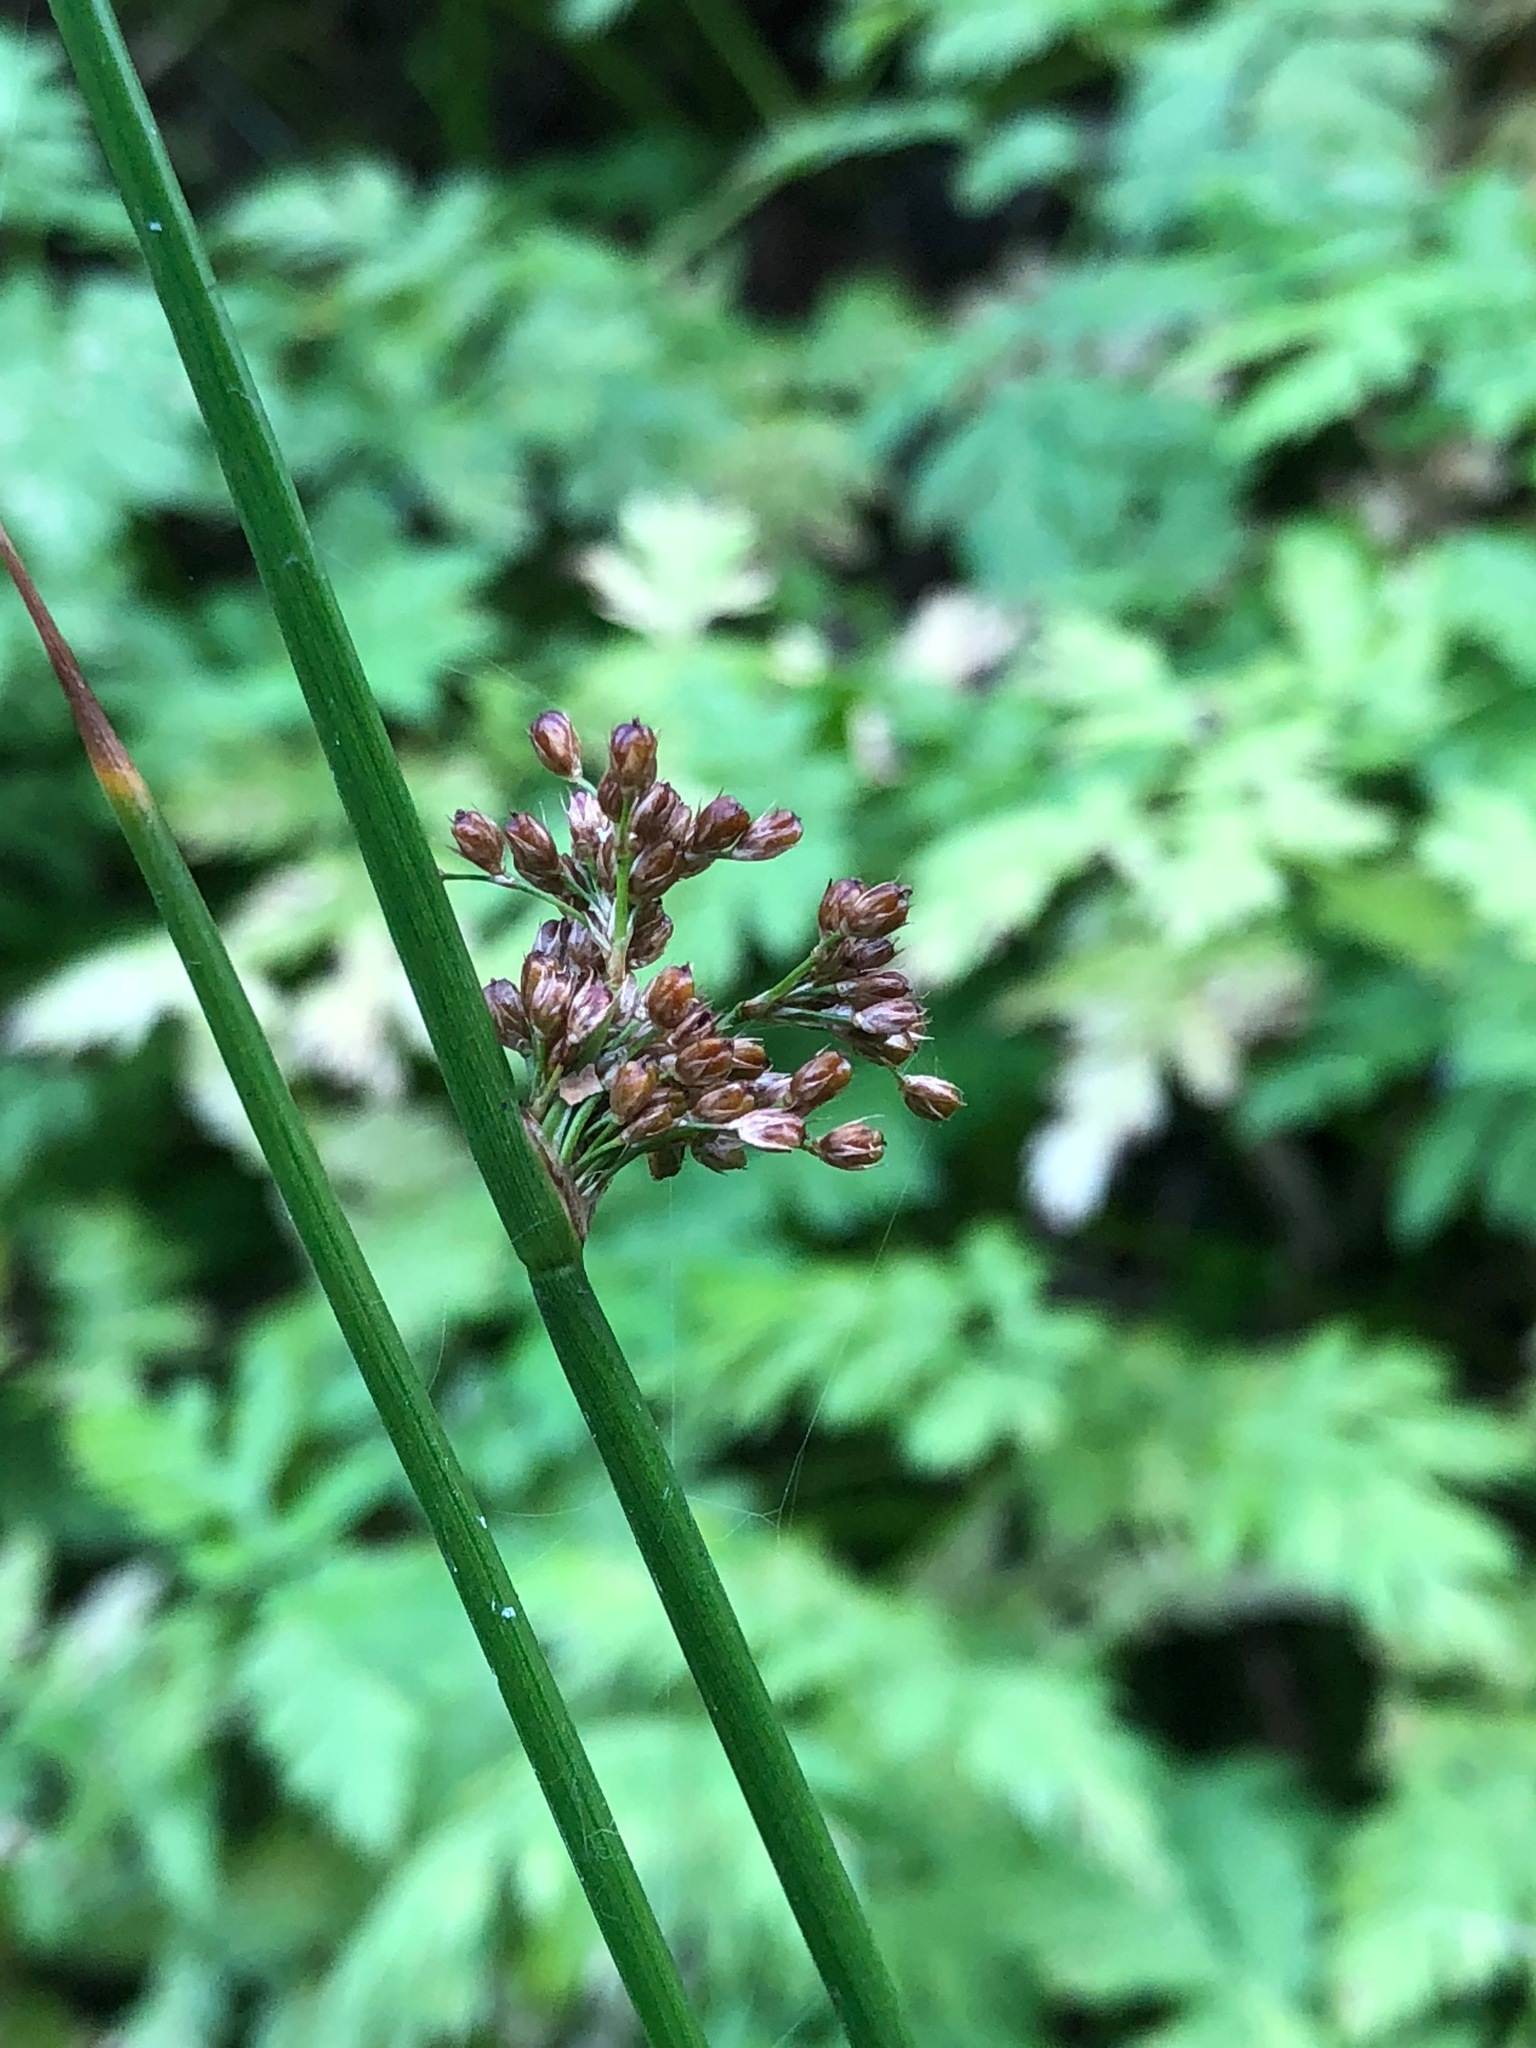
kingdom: Plantae
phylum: Tracheophyta
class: Liliopsida
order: Poales
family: Juncaceae
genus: Juncus
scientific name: Juncus effusus
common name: Soft rush
